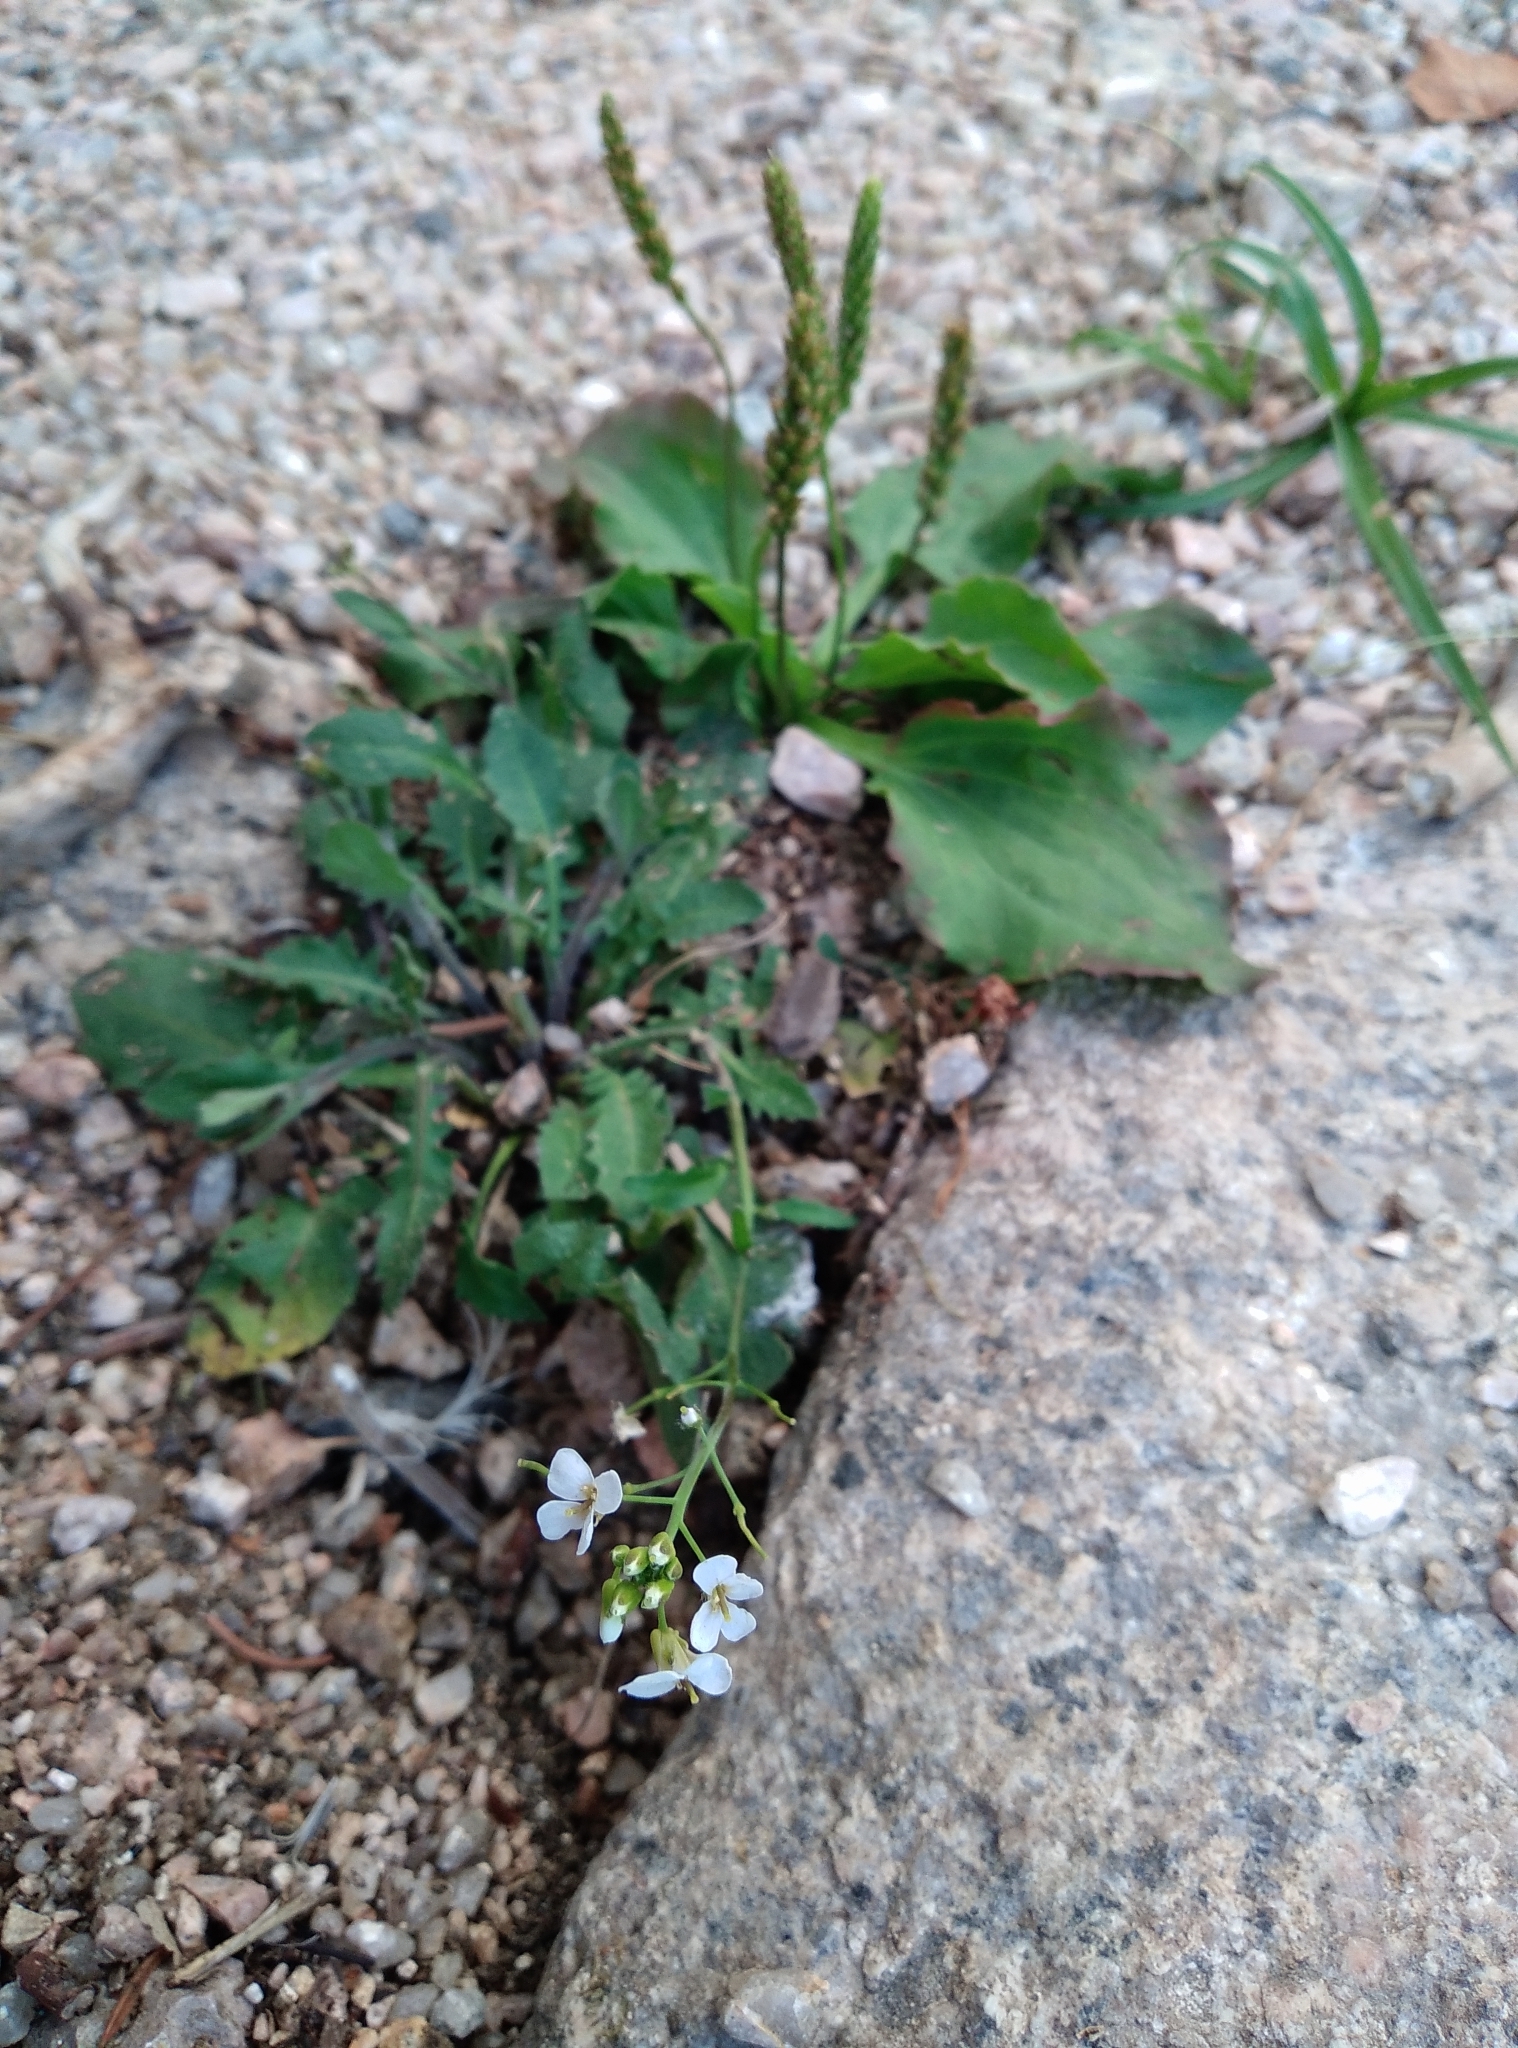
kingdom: Plantae
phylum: Tracheophyta
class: Magnoliopsida
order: Brassicales
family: Brassicaceae
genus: Arabidopsis
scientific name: Arabidopsis arenosa
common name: Sand rock-cress
